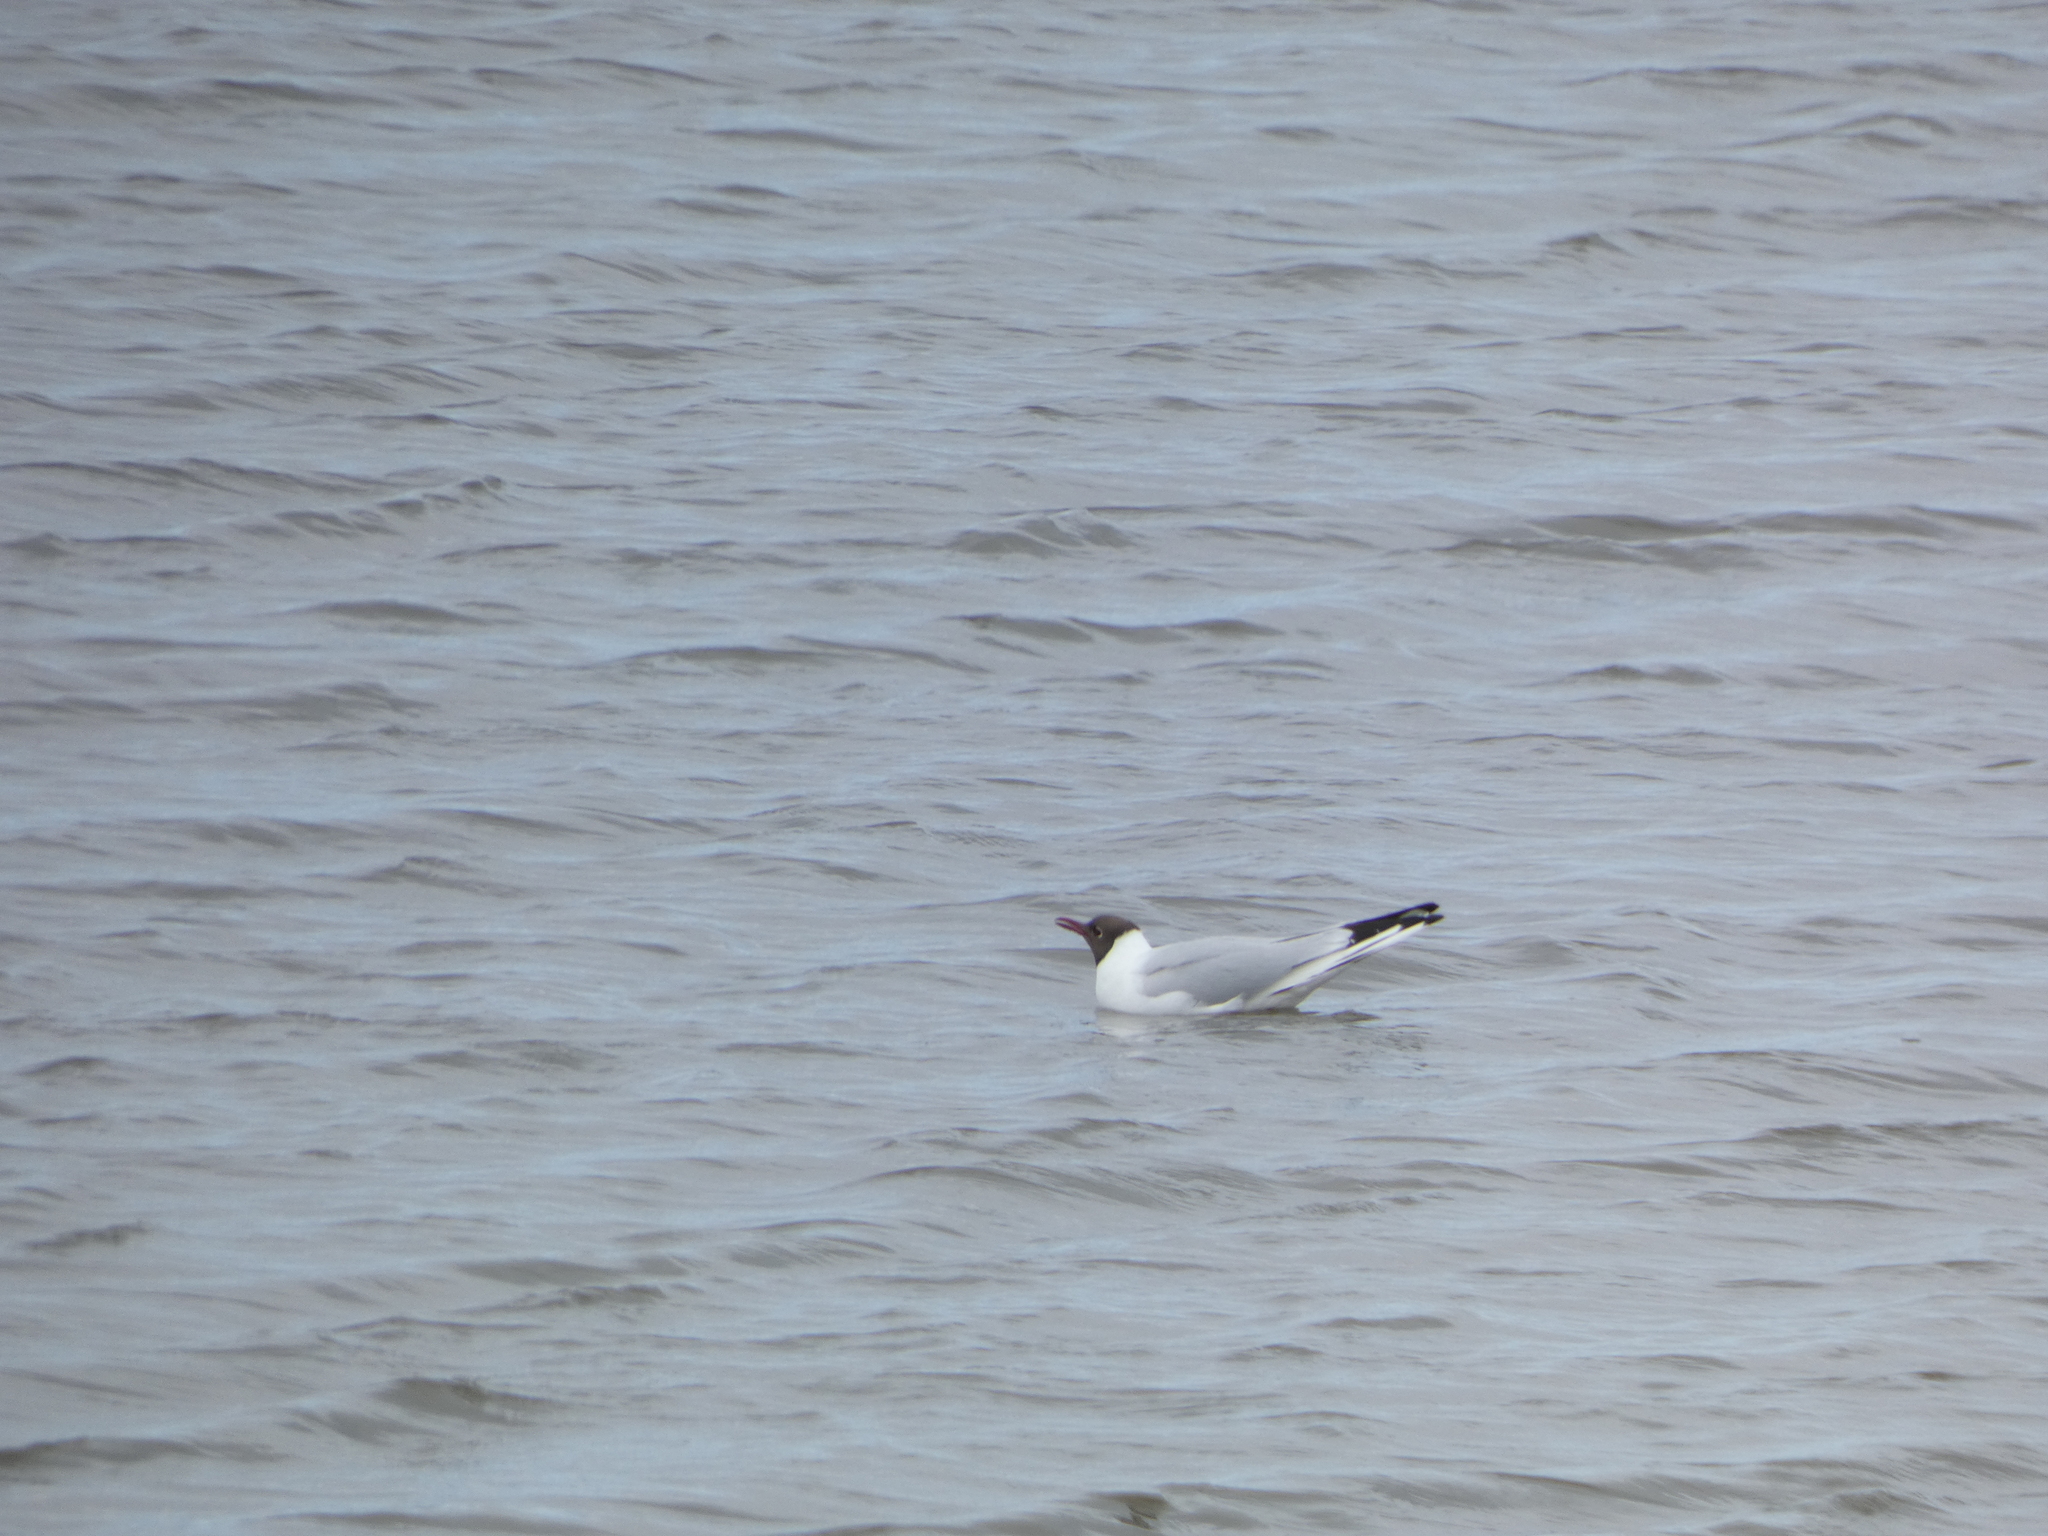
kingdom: Animalia
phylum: Chordata
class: Aves
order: Charadriiformes
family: Laridae
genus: Chroicocephalus
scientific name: Chroicocephalus ridibundus
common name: Black-headed gull
